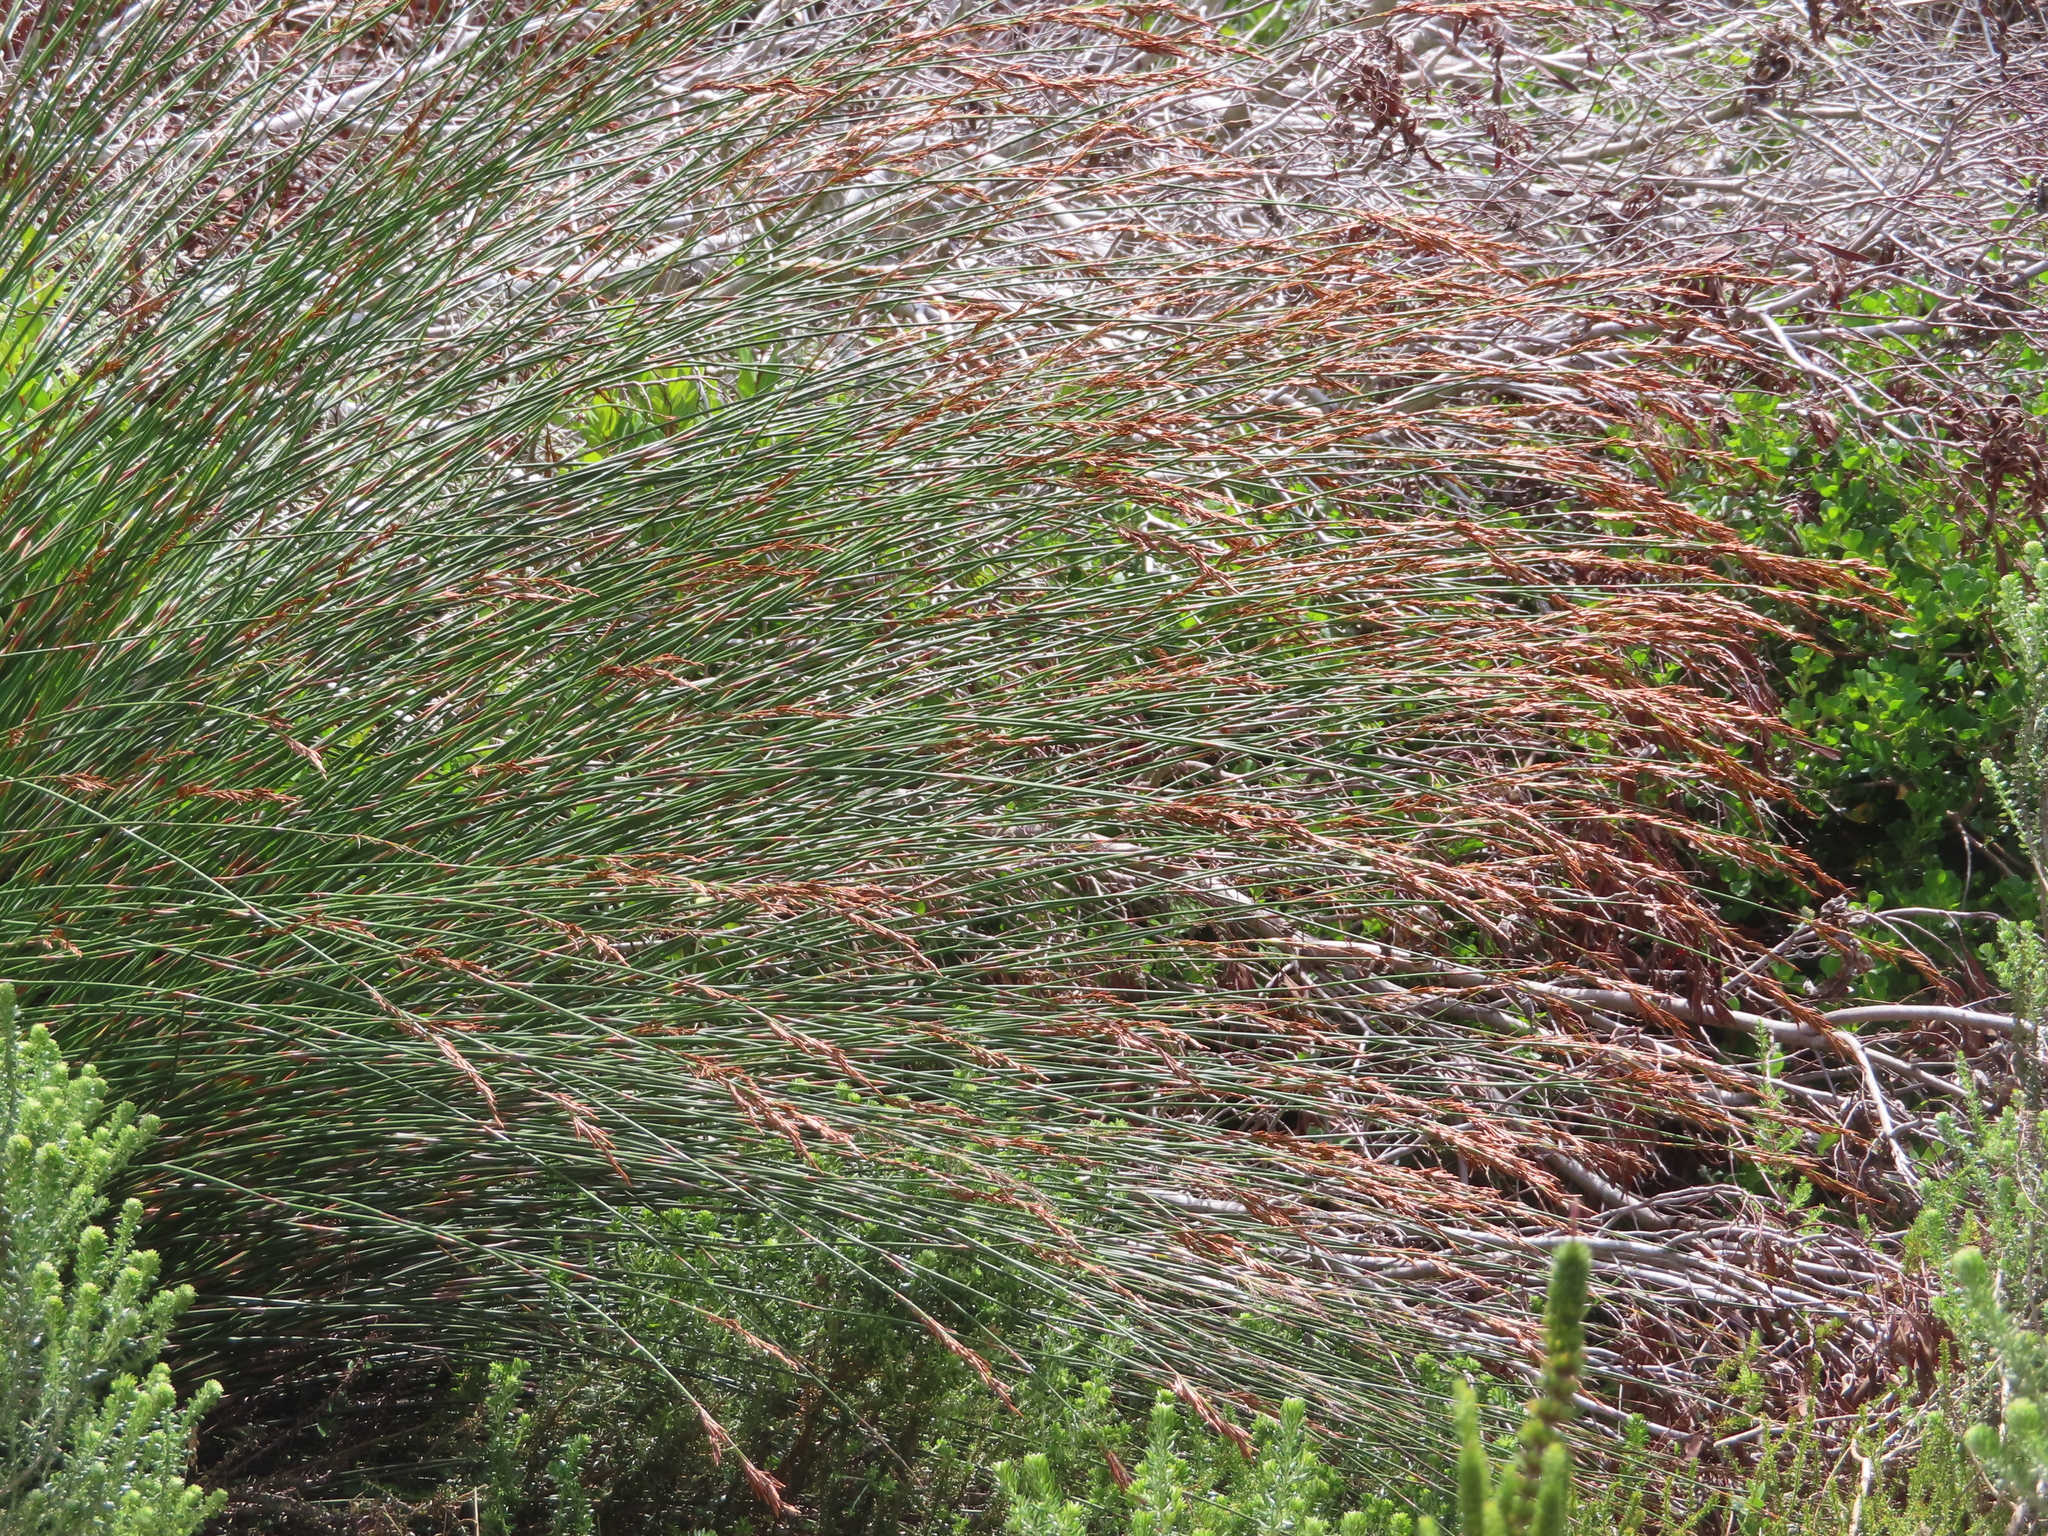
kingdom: Plantae
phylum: Tracheophyta
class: Liliopsida
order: Poales
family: Restionaceae
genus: Thamnochortus
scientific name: Thamnochortus insignis
